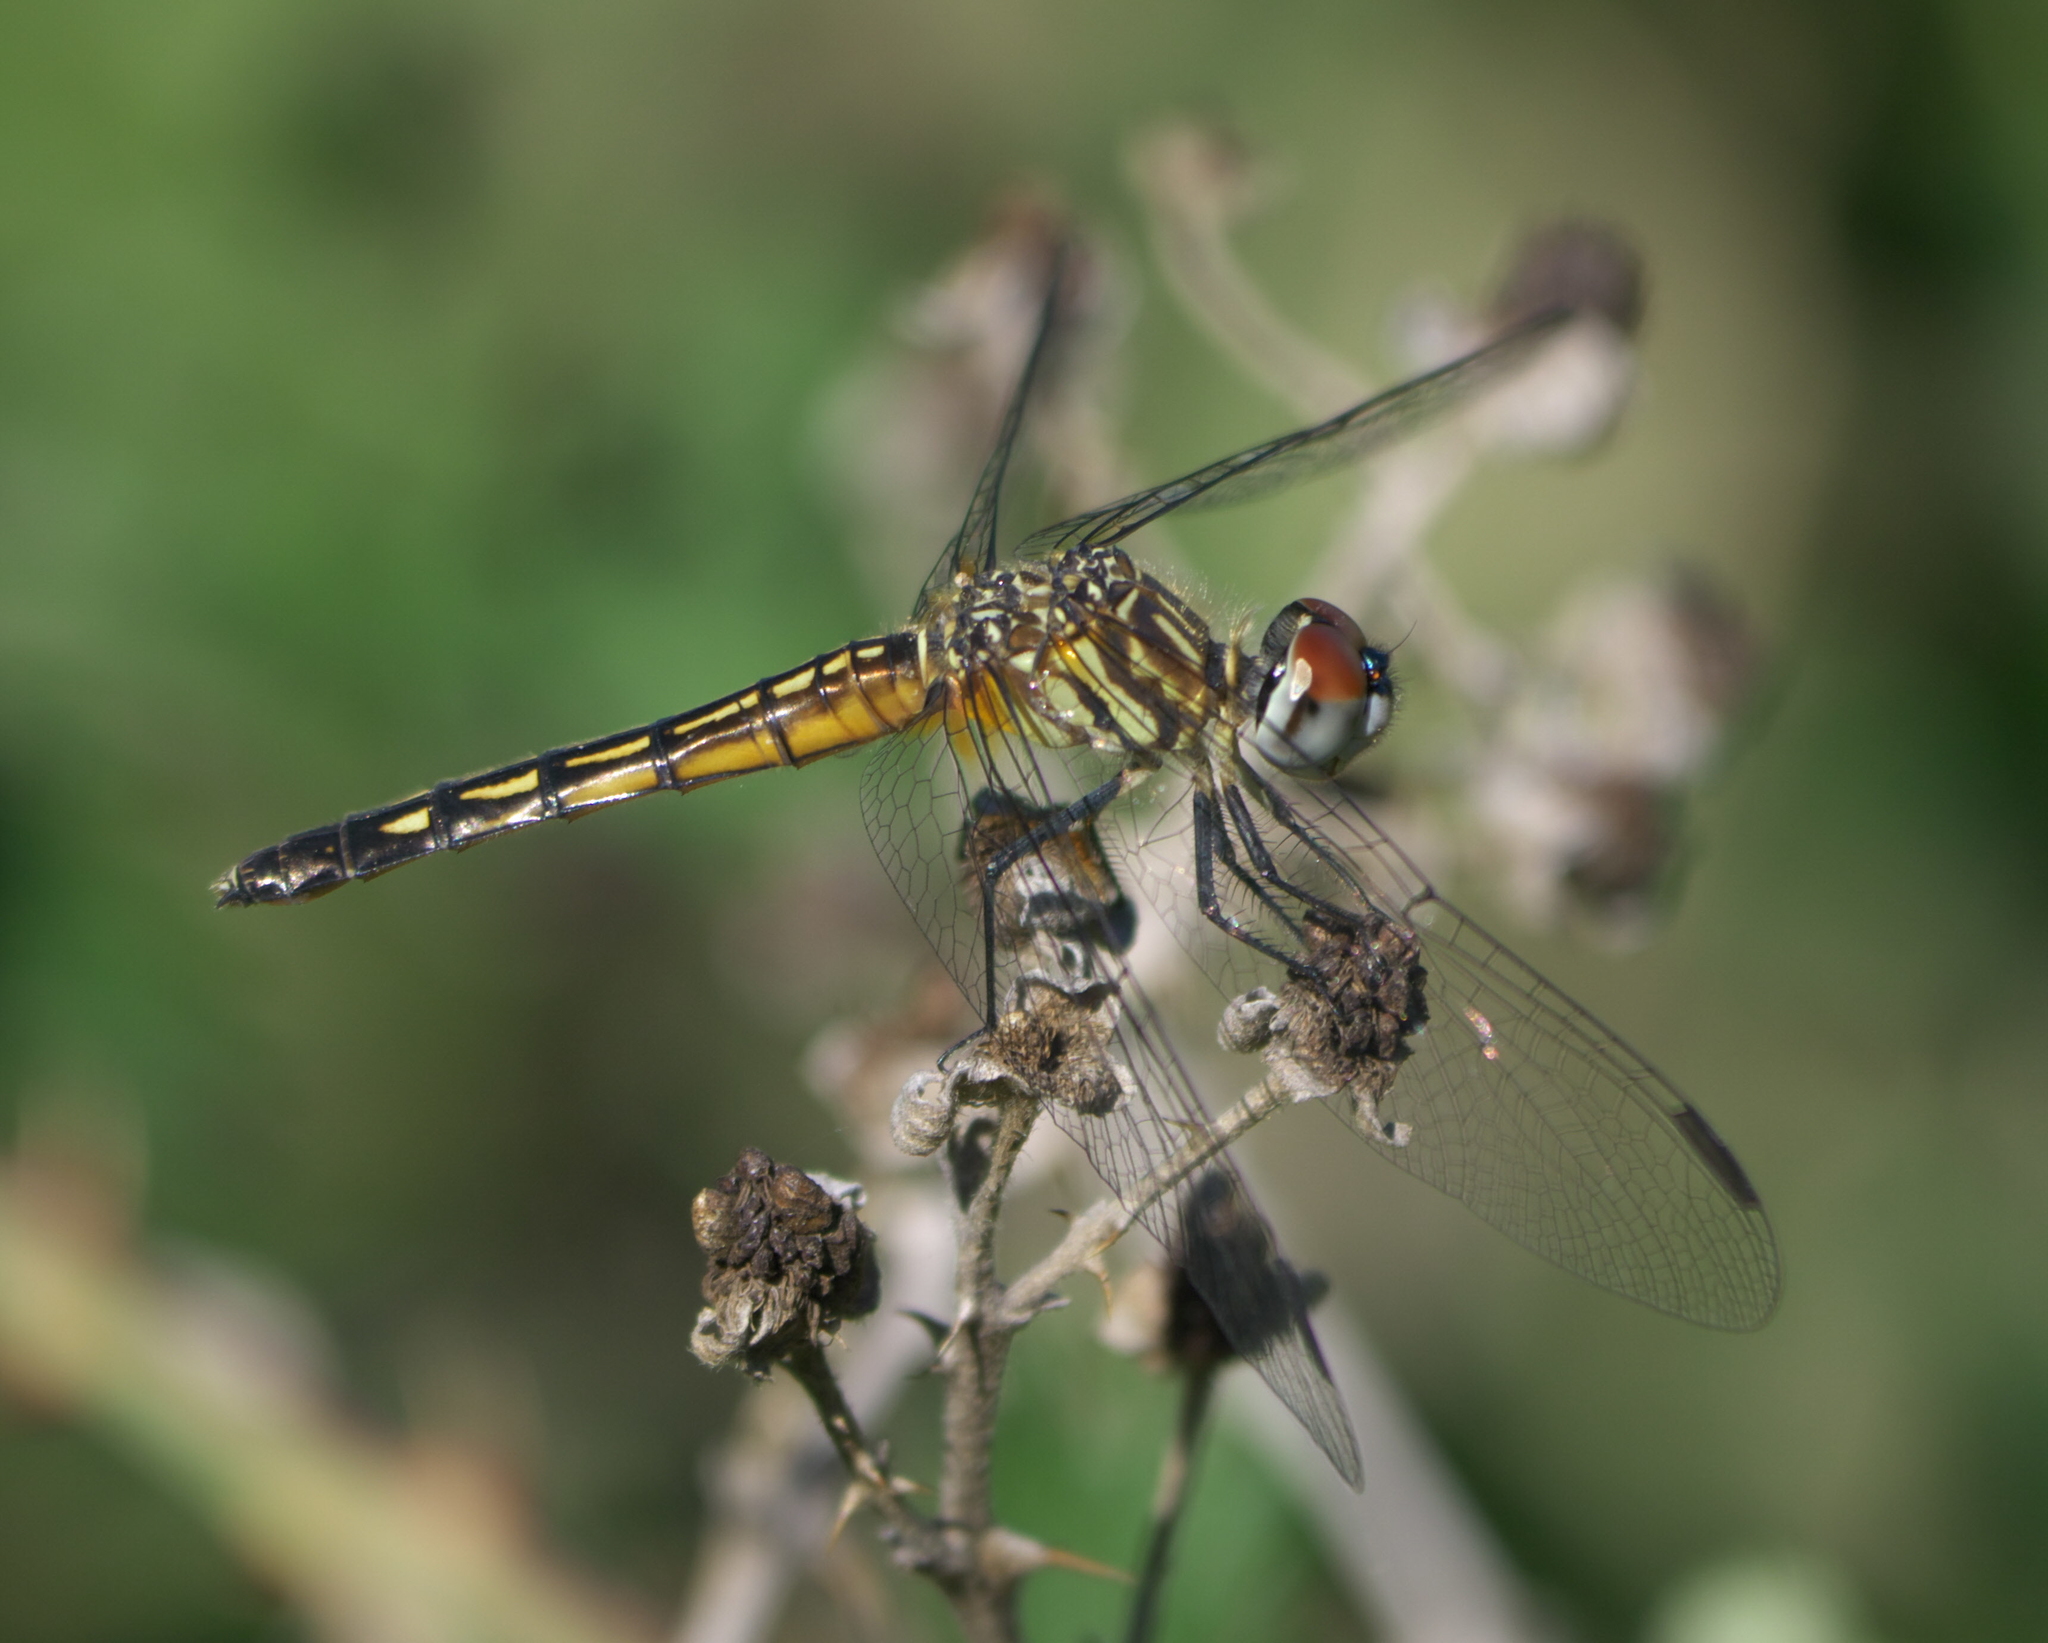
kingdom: Animalia
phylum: Arthropoda
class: Insecta
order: Odonata
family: Libellulidae
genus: Pachydiplax
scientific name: Pachydiplax longipennis
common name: Blue dasher
